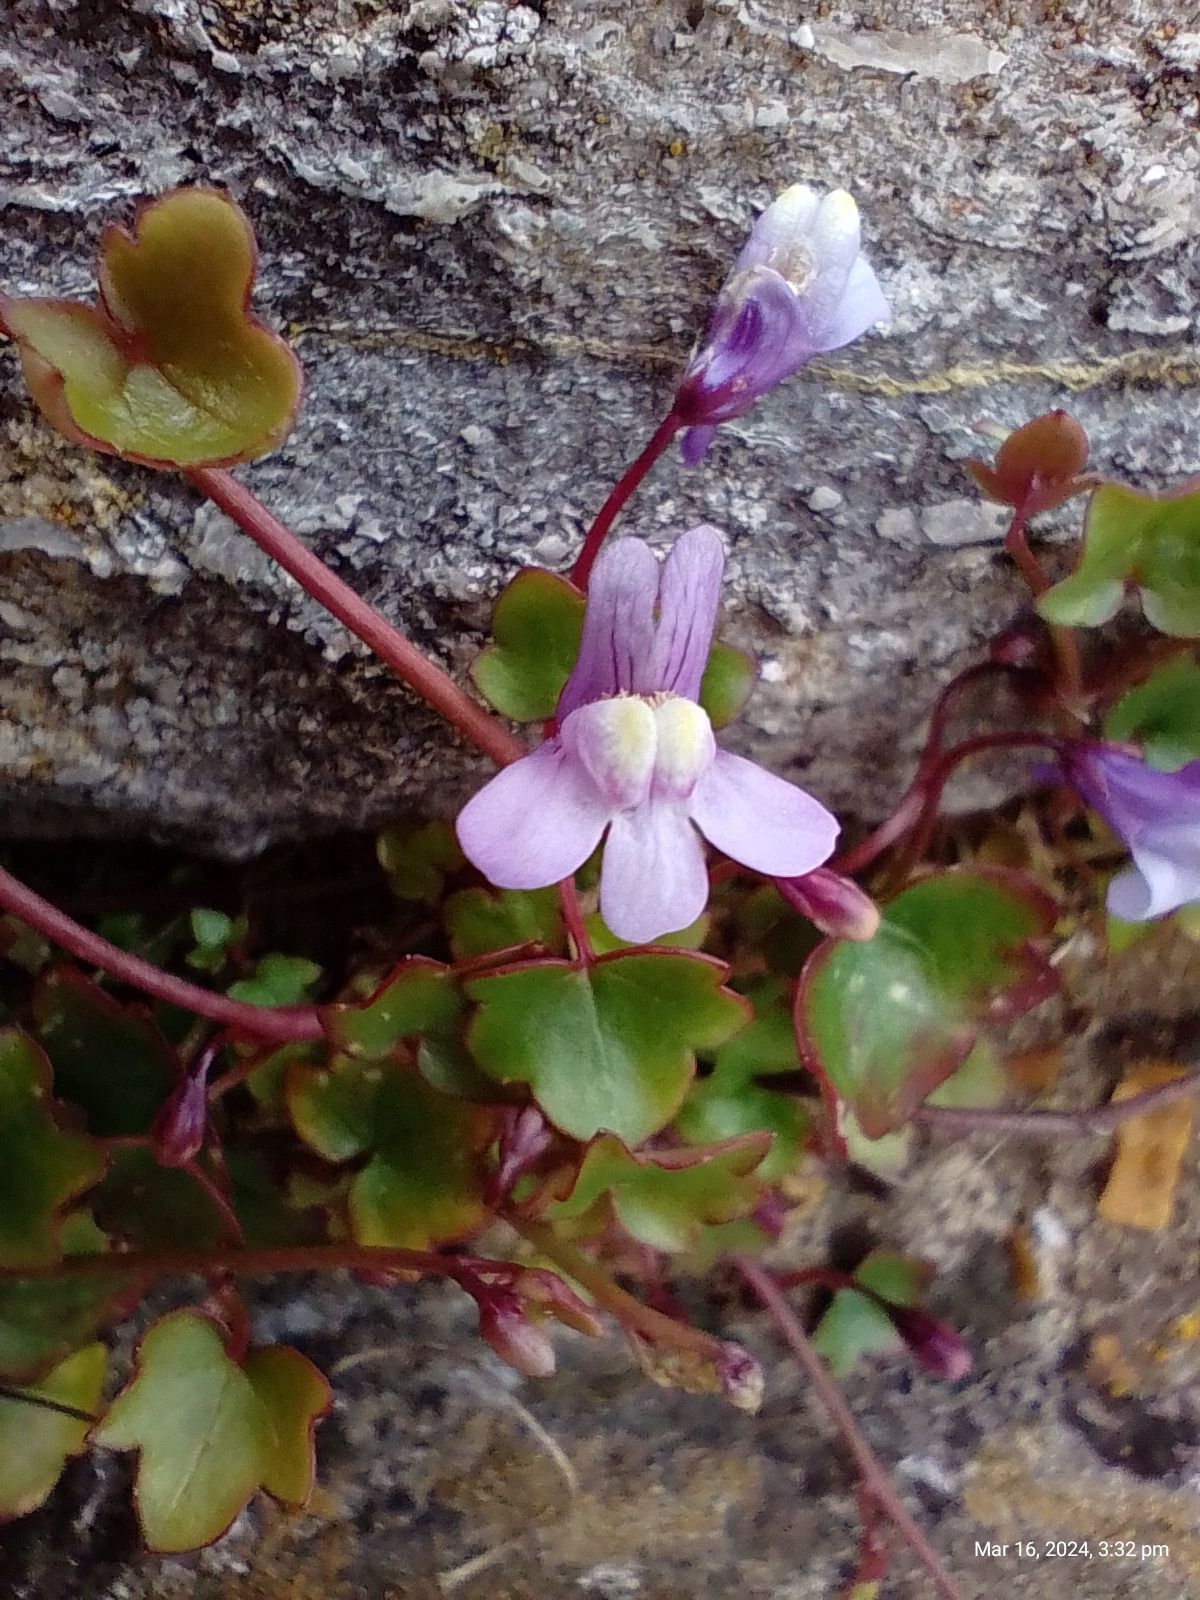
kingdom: Plantae
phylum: Tracheophyta
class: Magnoliopsida
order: Lamiales
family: Plantaginaceae
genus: Cymbalaria
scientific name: Cymbalaria muralis
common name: Ivy-leaved toadflax
